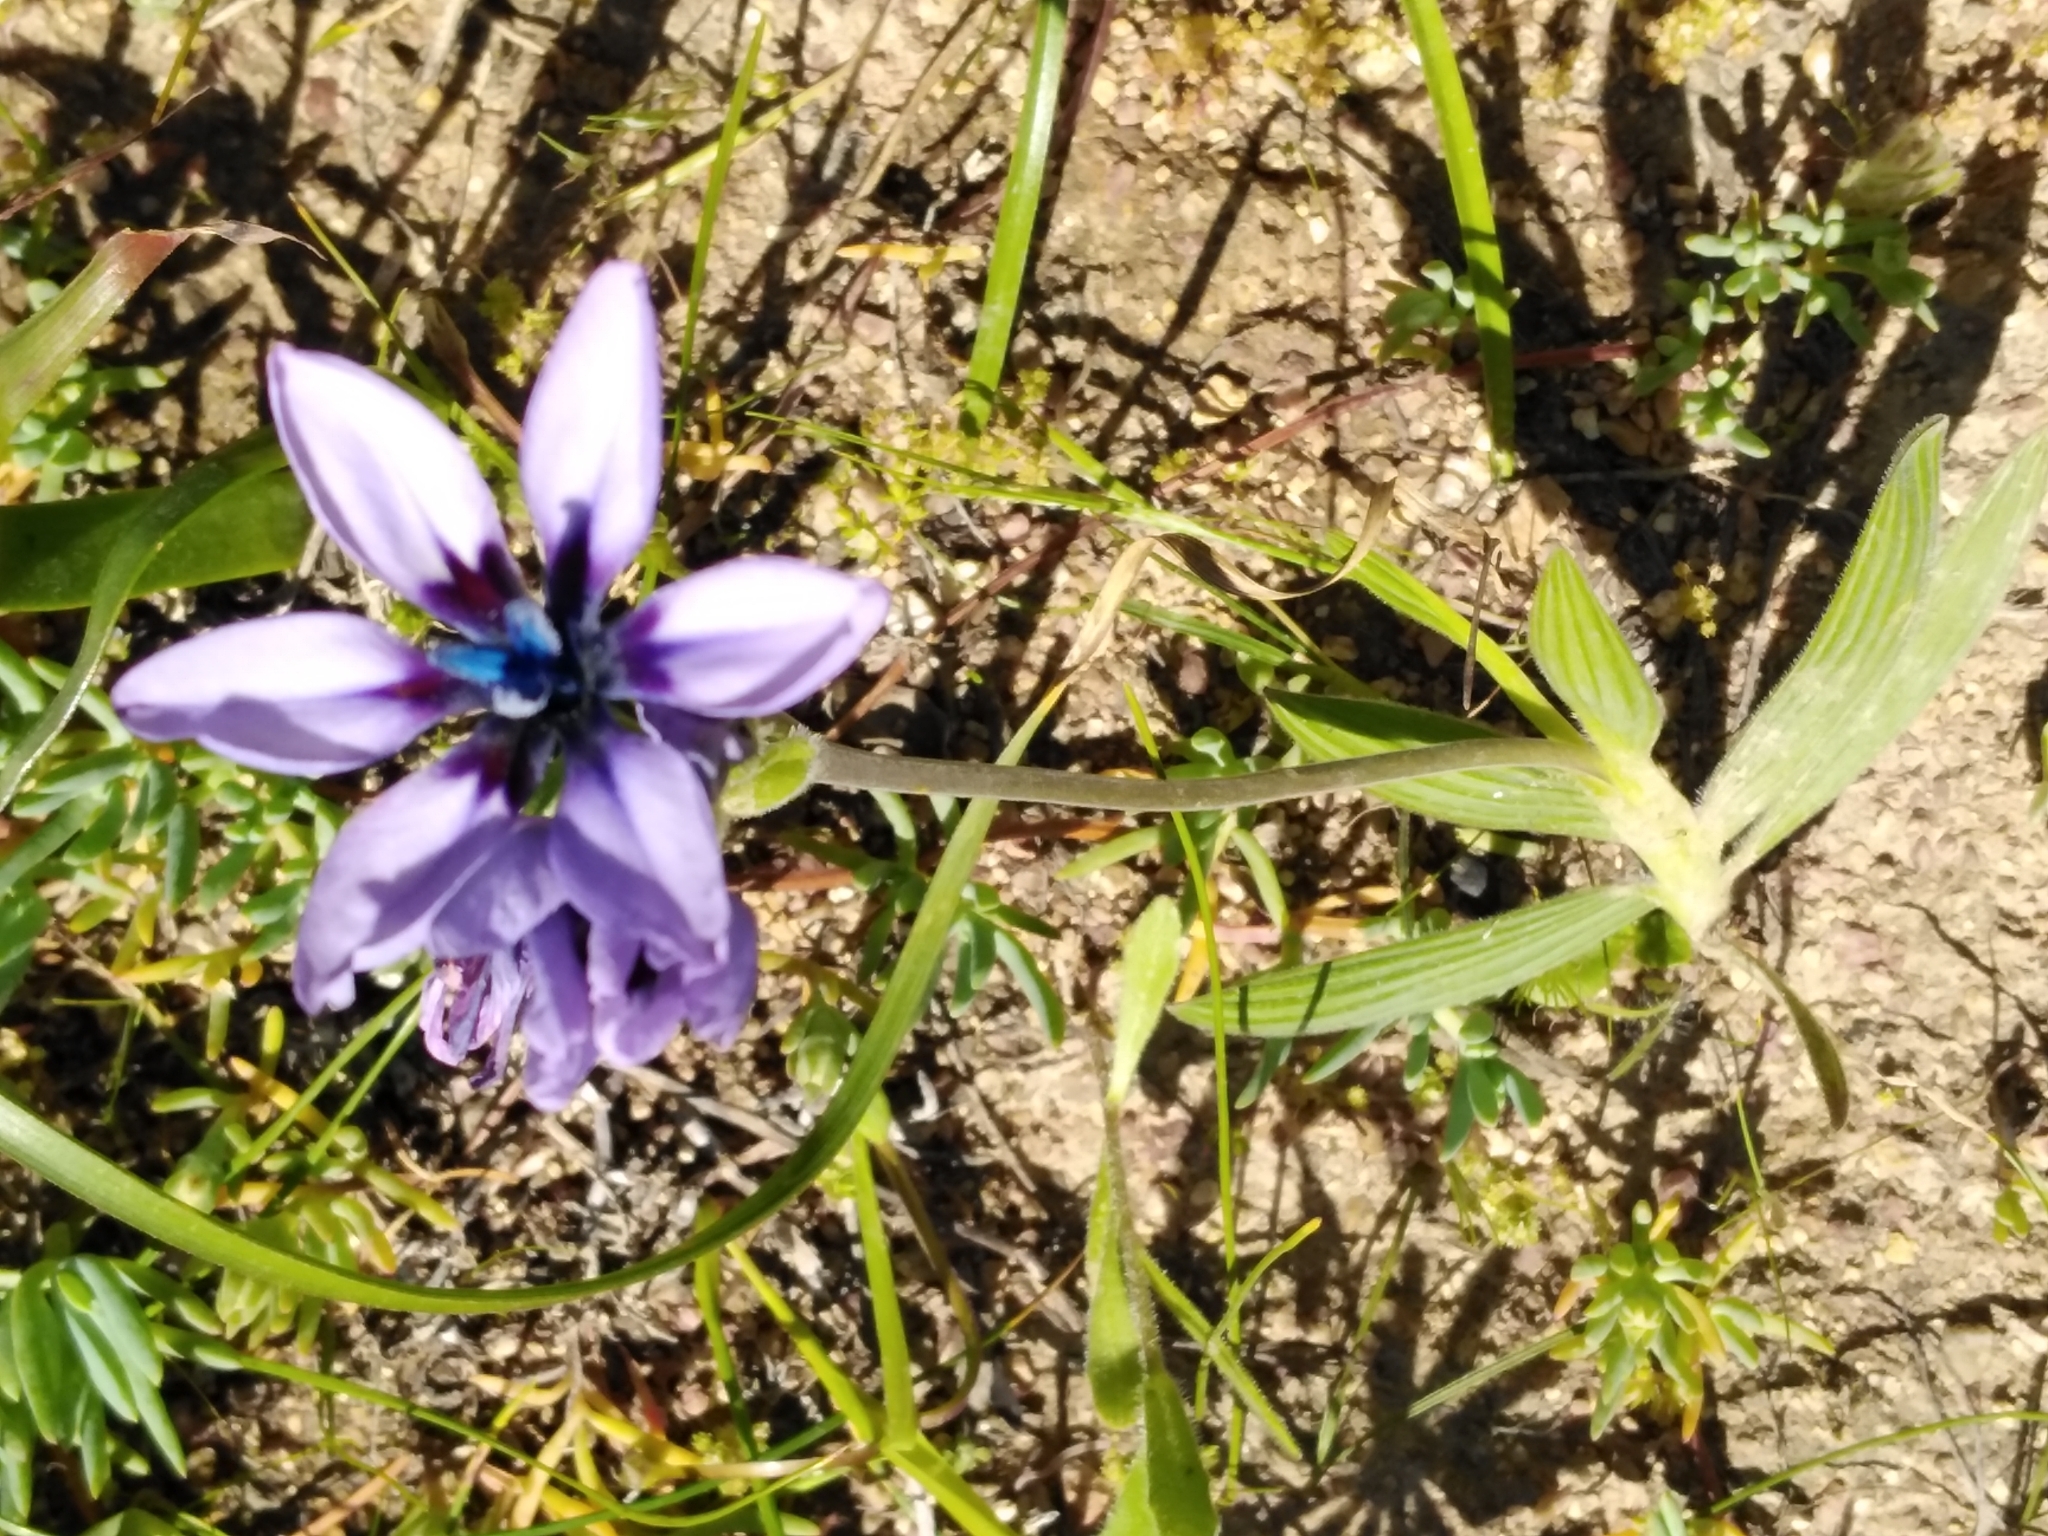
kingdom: Plantae
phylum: Tracheophyta
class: Liliopsida
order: Asparagales
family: Iridaceae
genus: Babiana
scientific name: Babiana melanops
